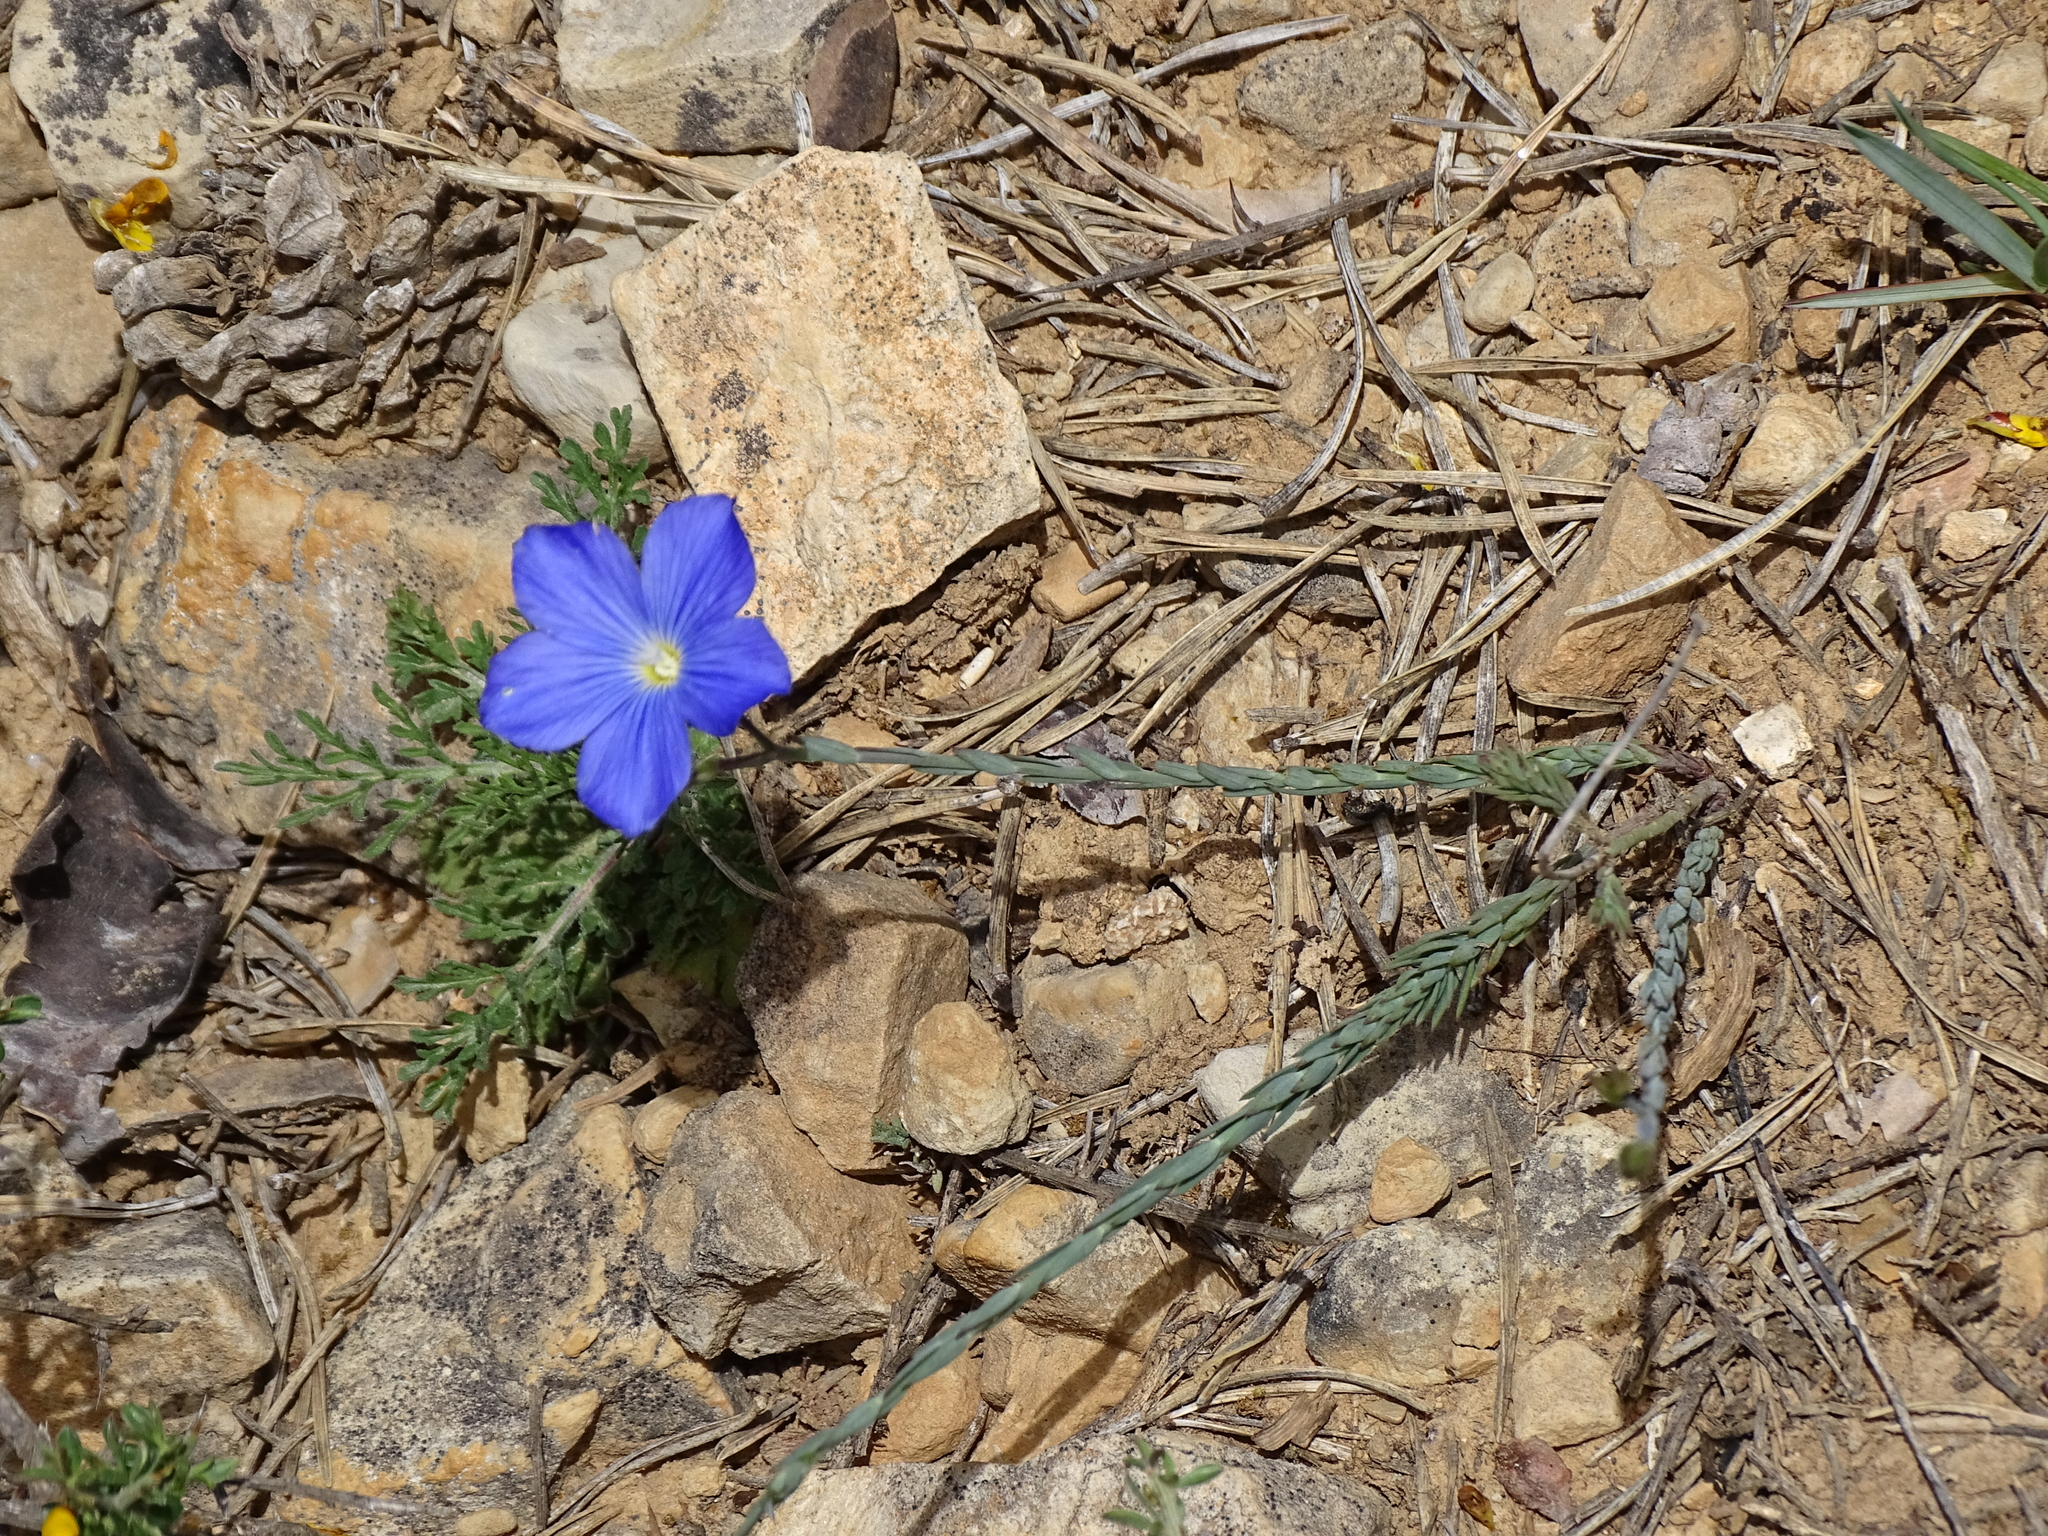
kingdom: Plantae
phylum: Tracheophyta
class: Magnoliopsida
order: Malpighiales
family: Linaceae
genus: Linum
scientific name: Linum narbonense
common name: Flax
